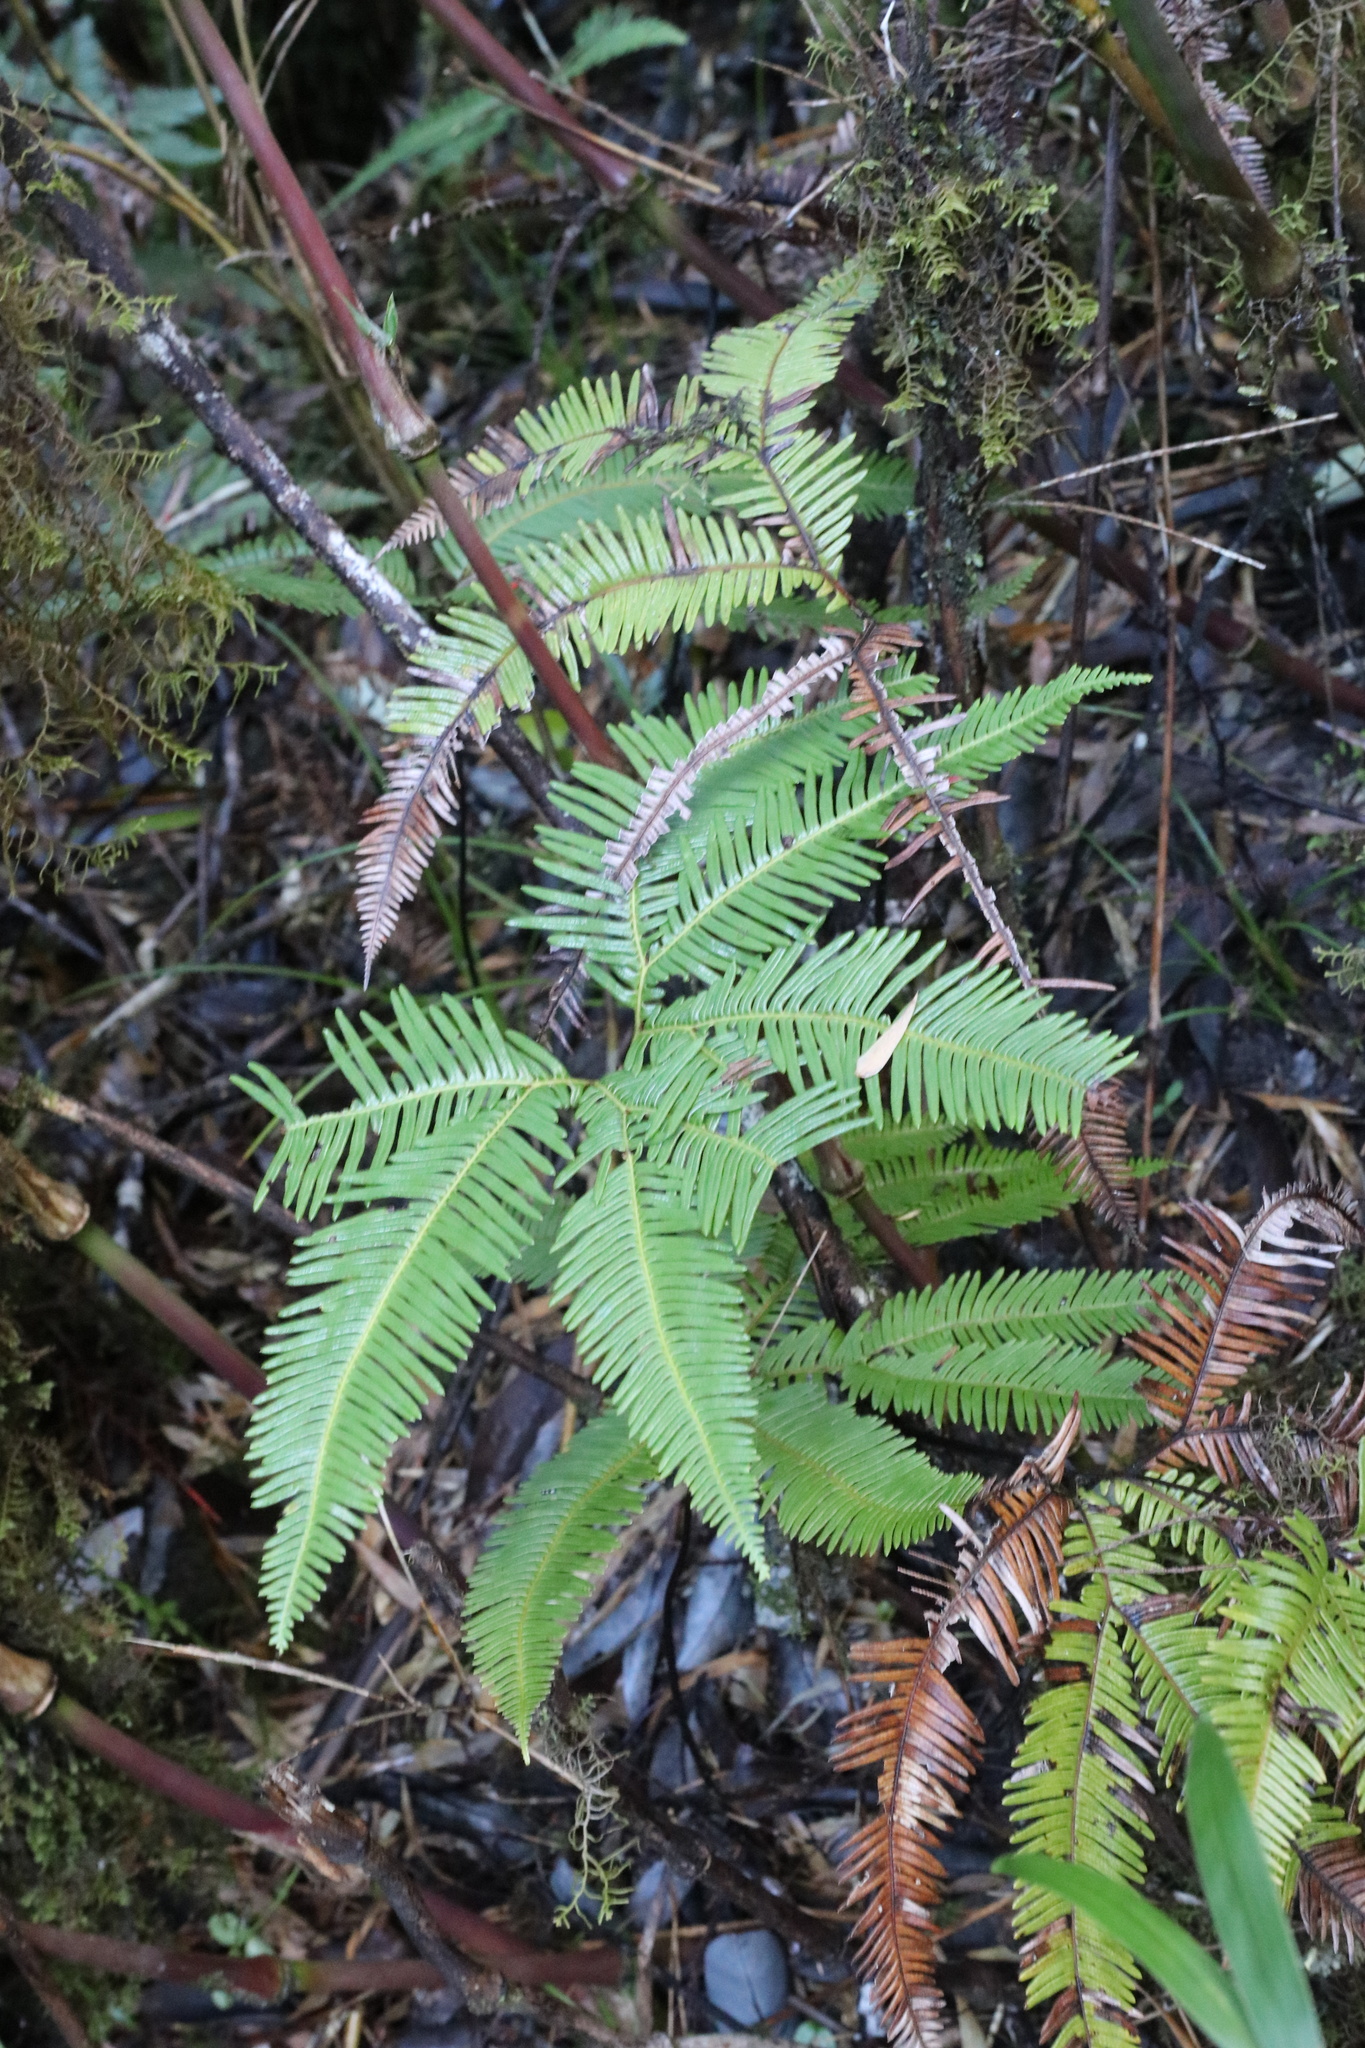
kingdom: Plantae
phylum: Tracheophyta
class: Polypodiopsida
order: Gleicheniales
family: Gleicheniaceae
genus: Sticherus
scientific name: Sticherus quadripartitus
